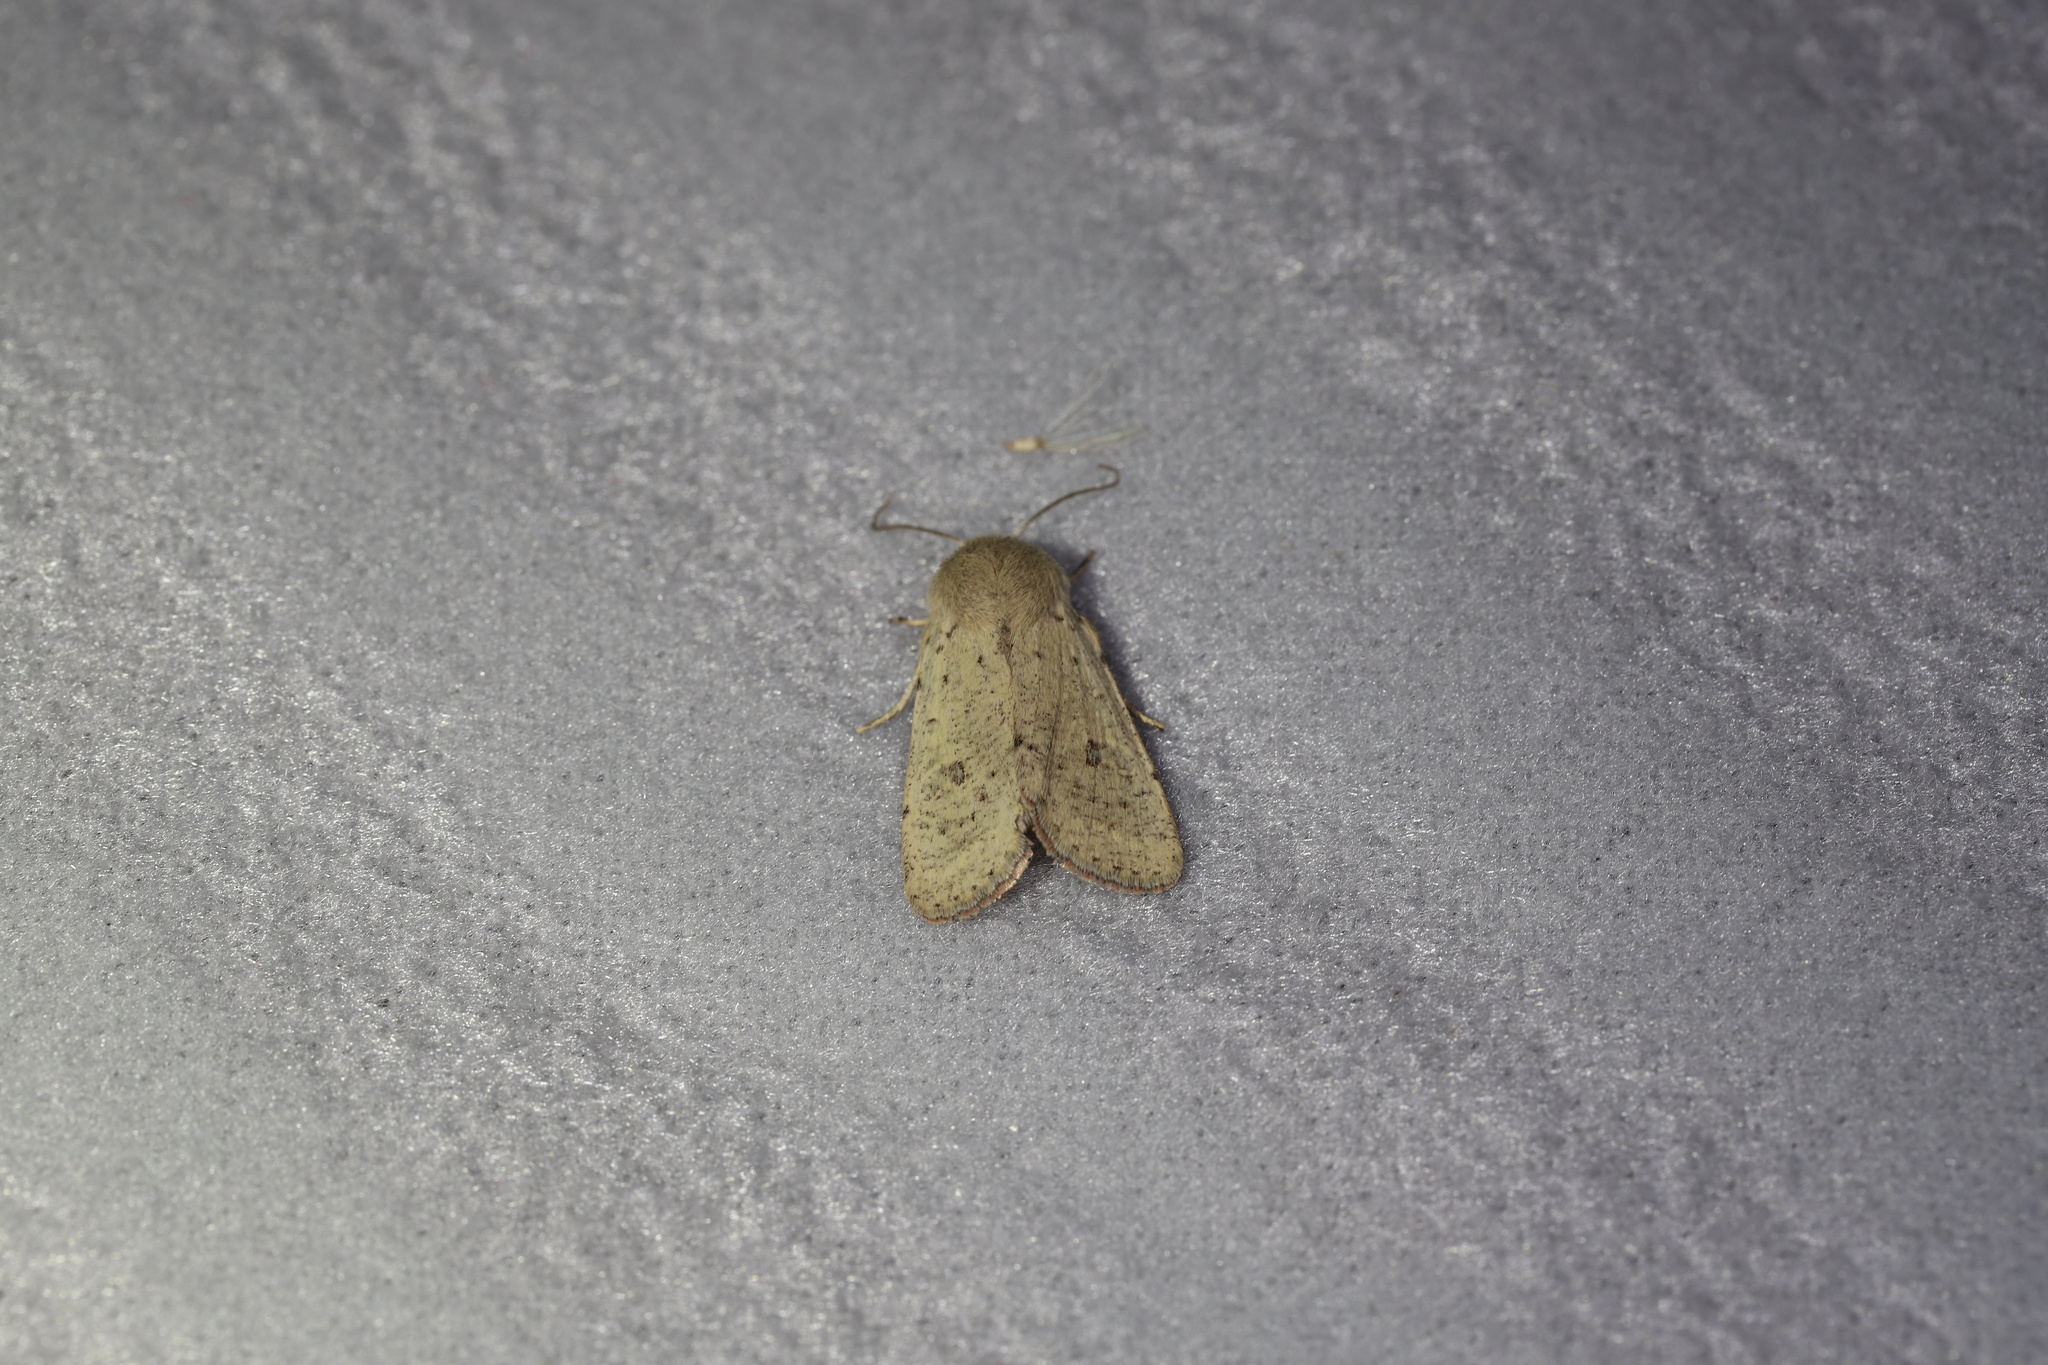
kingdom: Animalia
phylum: Arthropoda
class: Insecta
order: Lepidoptera
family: Noctuidae
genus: Orthosia
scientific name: Orthosia cruda
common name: Small quaker
